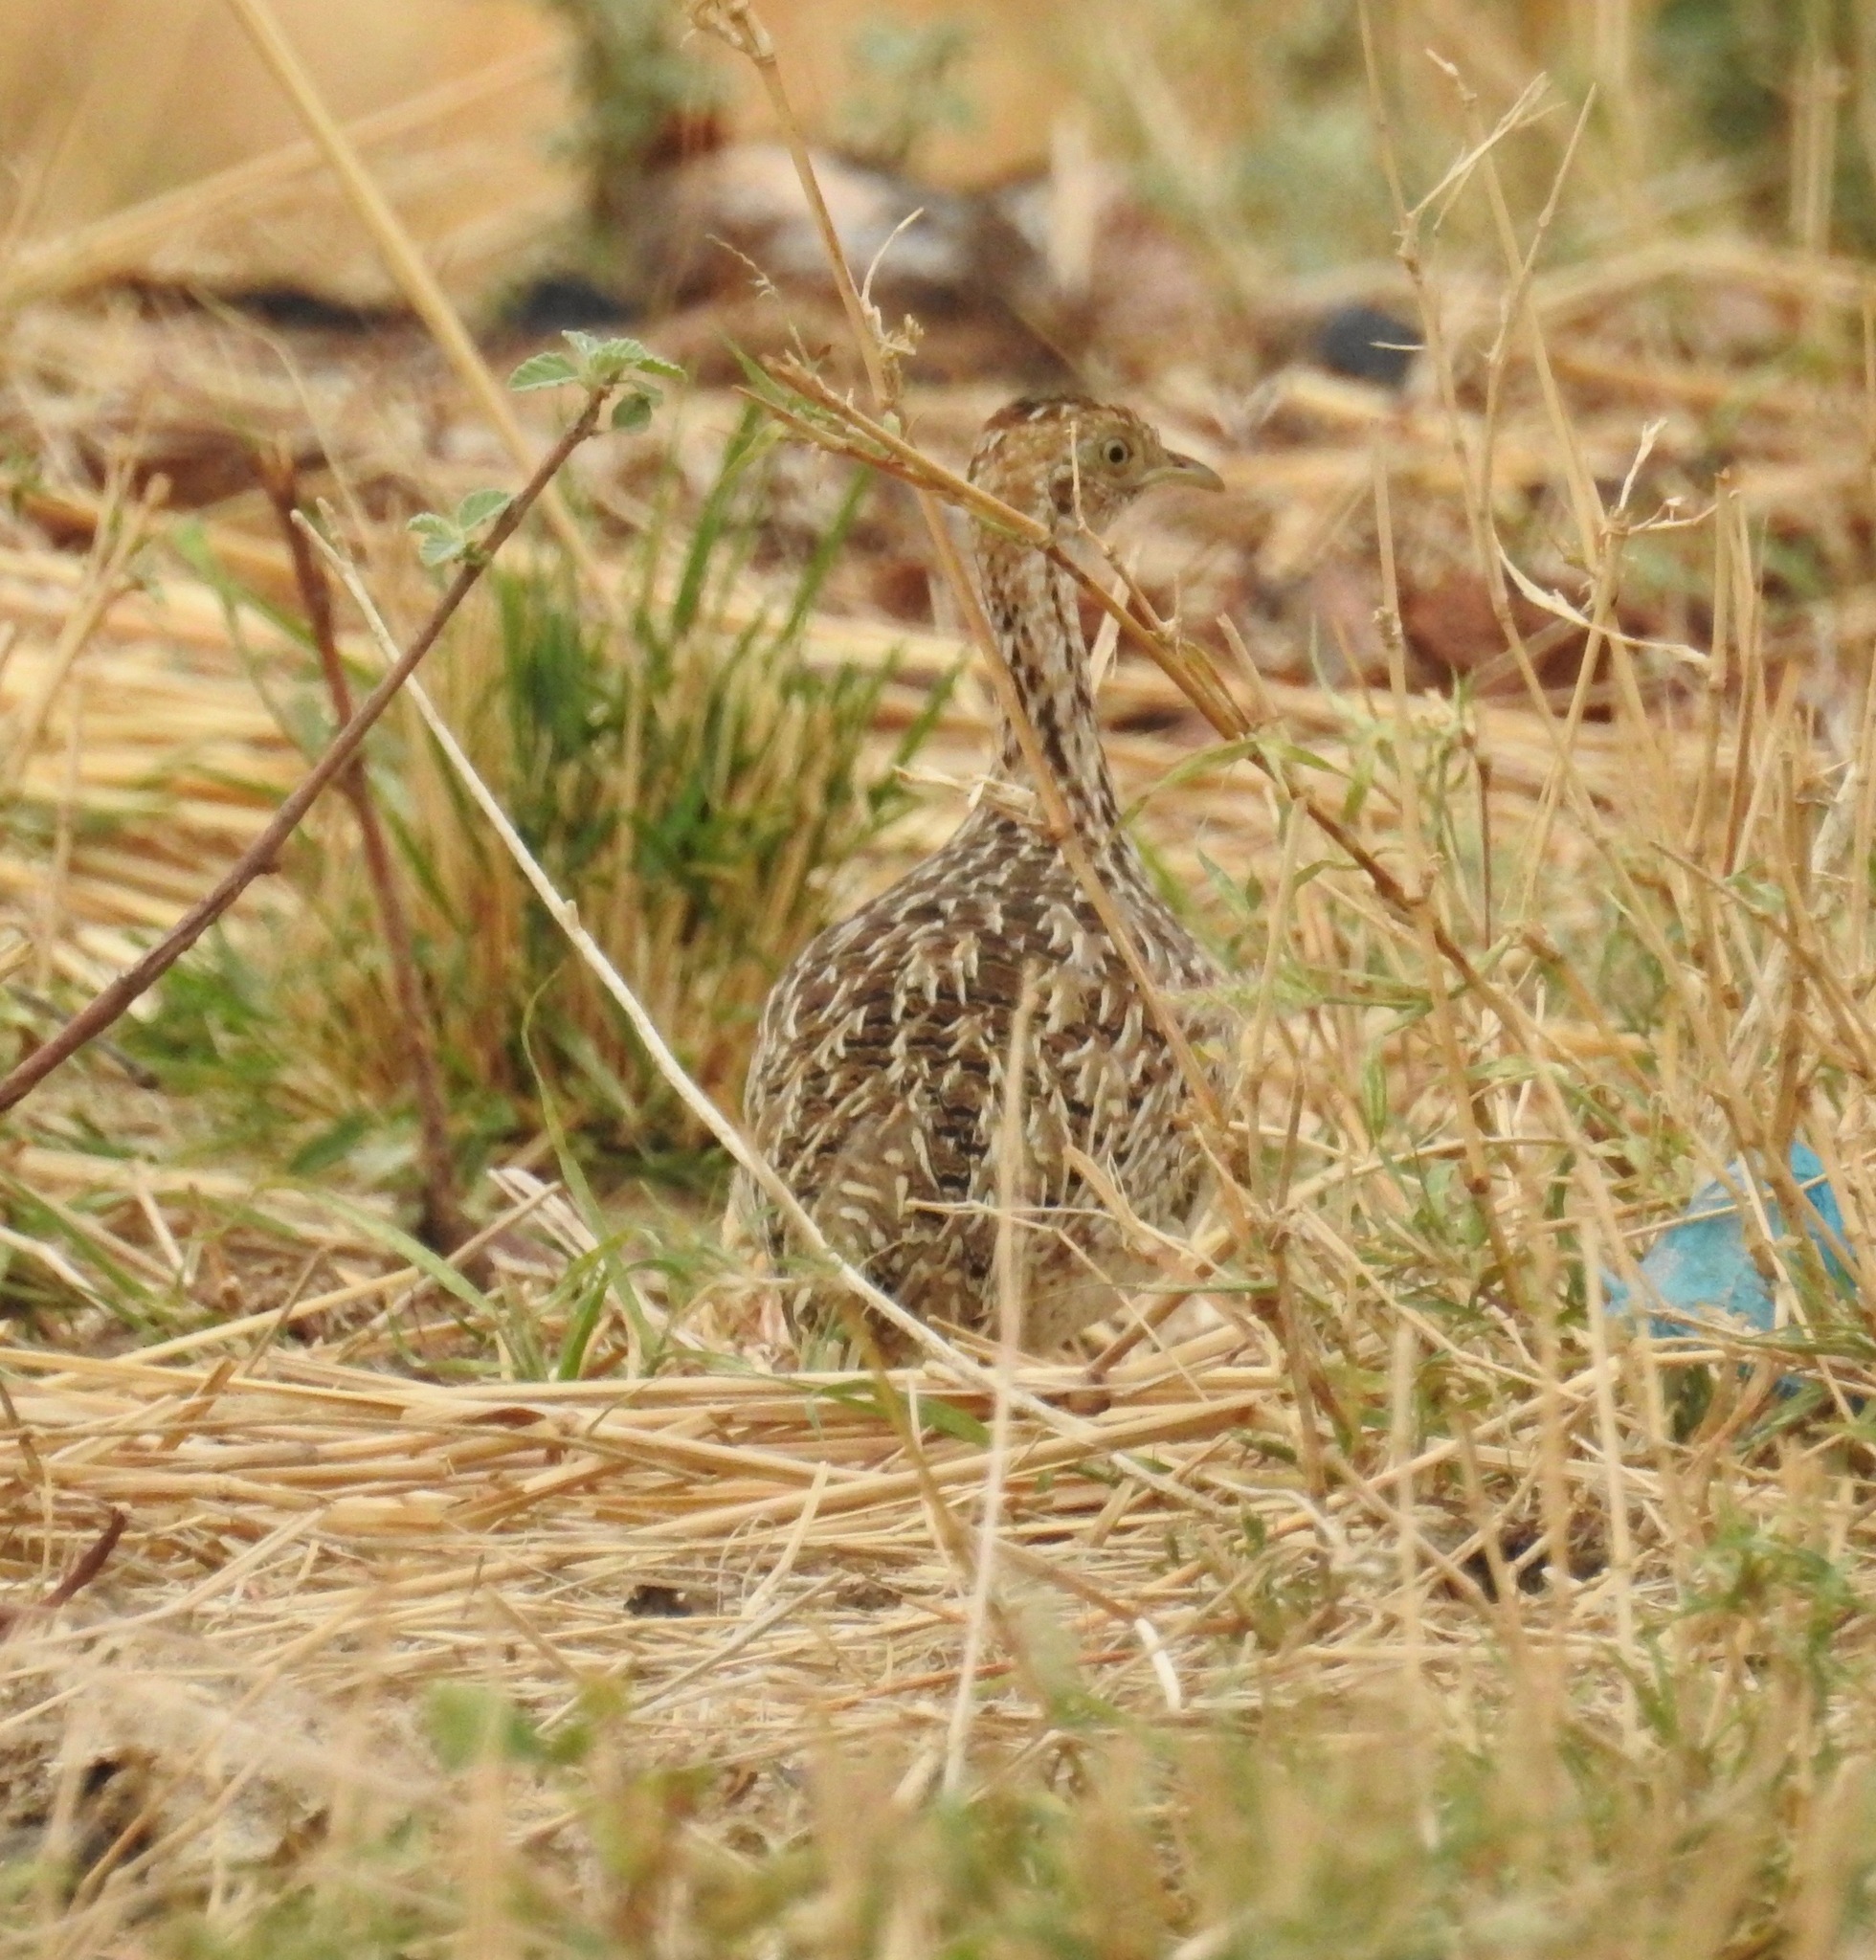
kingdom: Animalia
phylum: Chordata
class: Aves
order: Tinamiformes
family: Tinamidae
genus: Nothura
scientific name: Nothura boraquira
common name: White-bellied nothura
